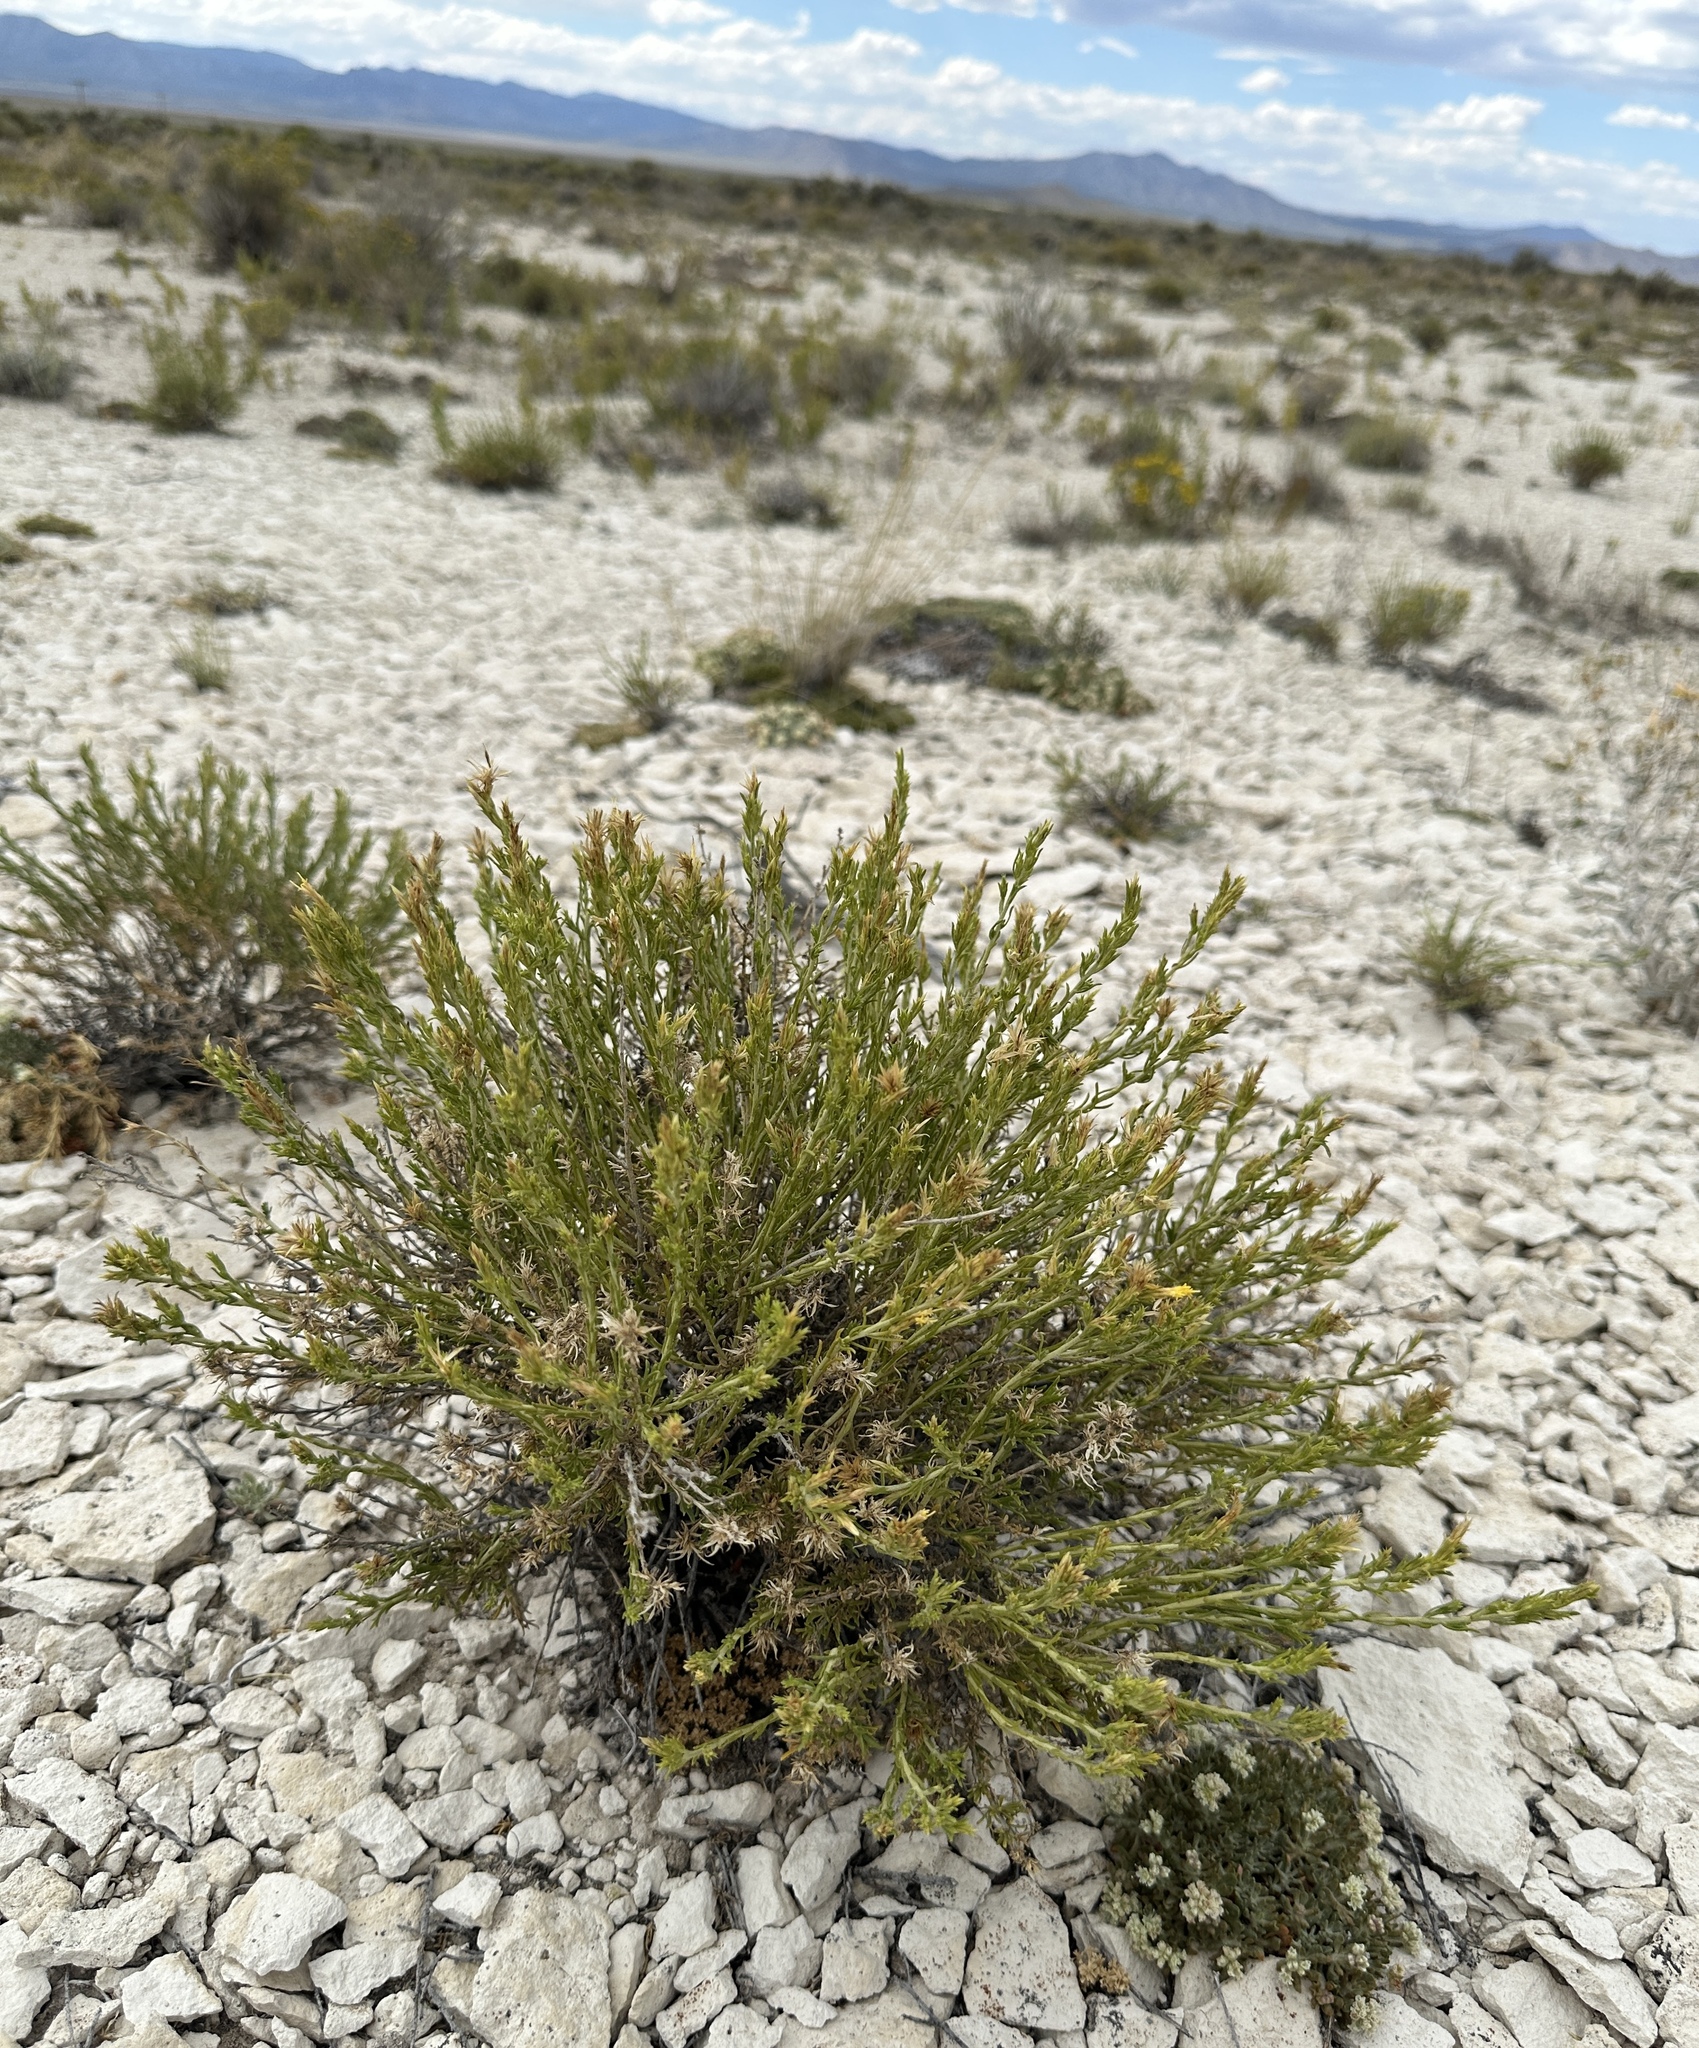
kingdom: Plantae
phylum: Tracheophyta
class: Magnoliopsida
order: Asterales
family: Asteraceae
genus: Ericameria
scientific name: Ericameria parryi
